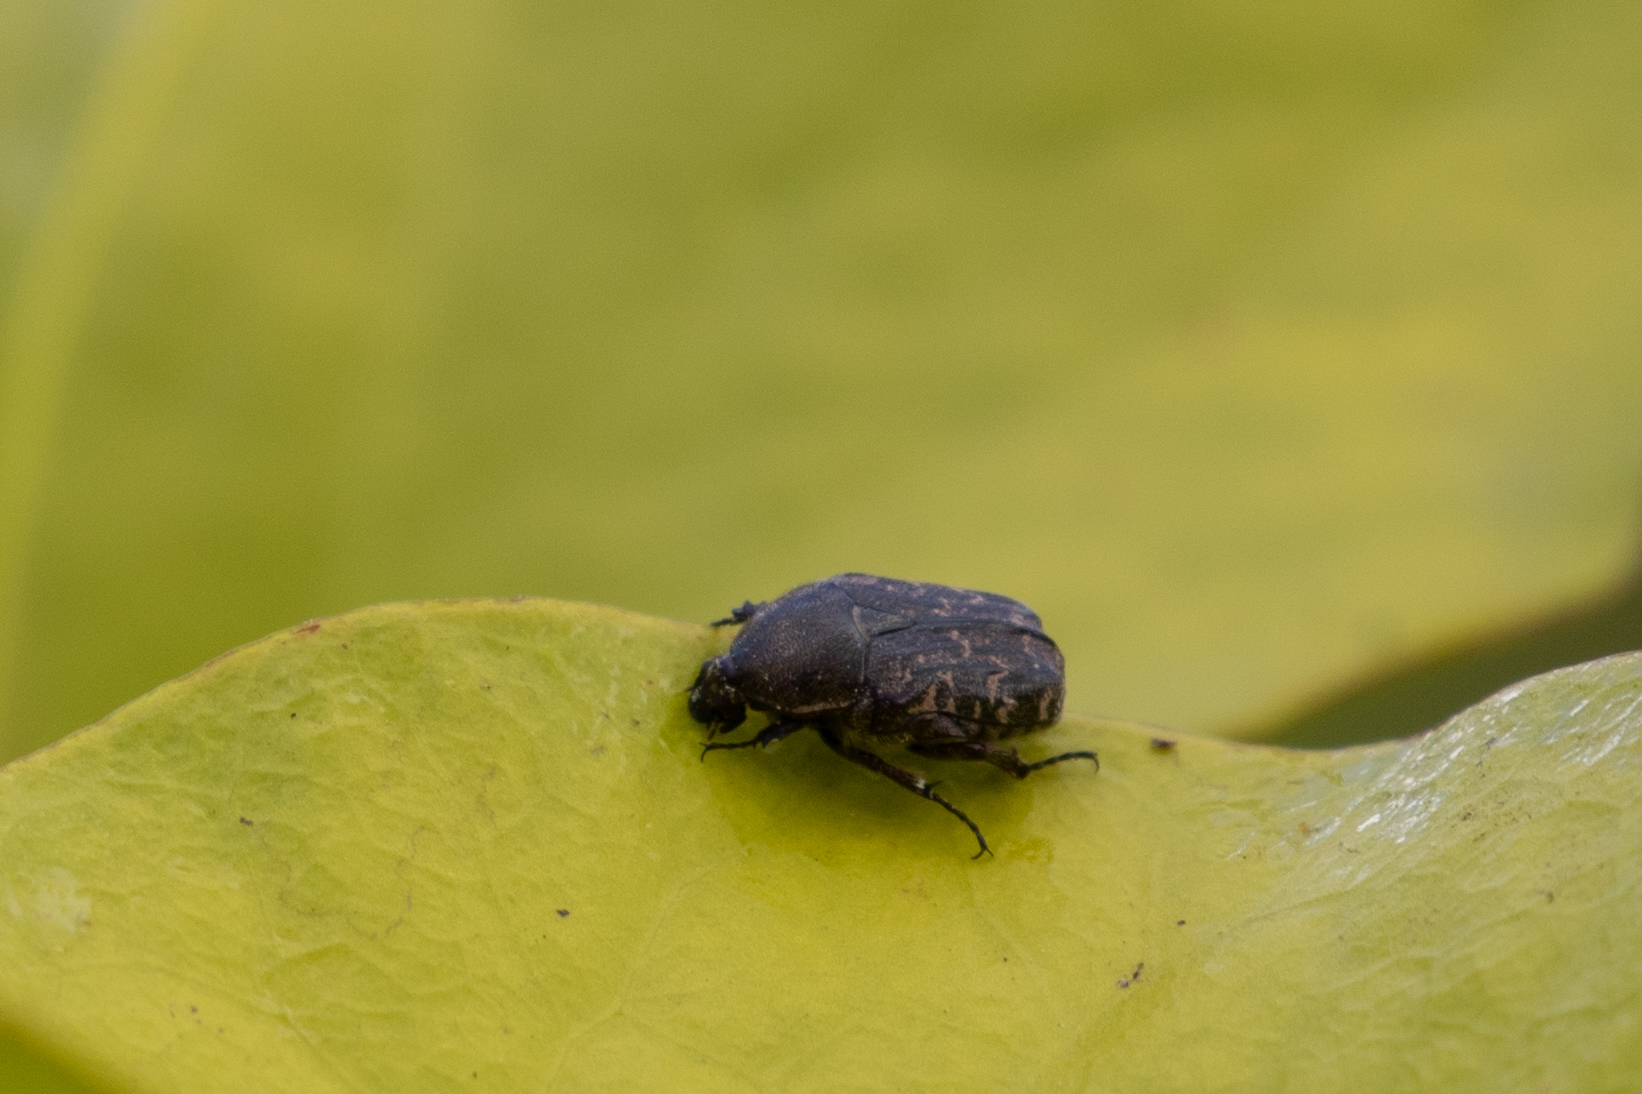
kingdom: Animalia
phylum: Arthropoda
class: Insecta
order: Coleoptera
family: Scarabaeidae
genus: Euphoria
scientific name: Euphoria sepulcralis
